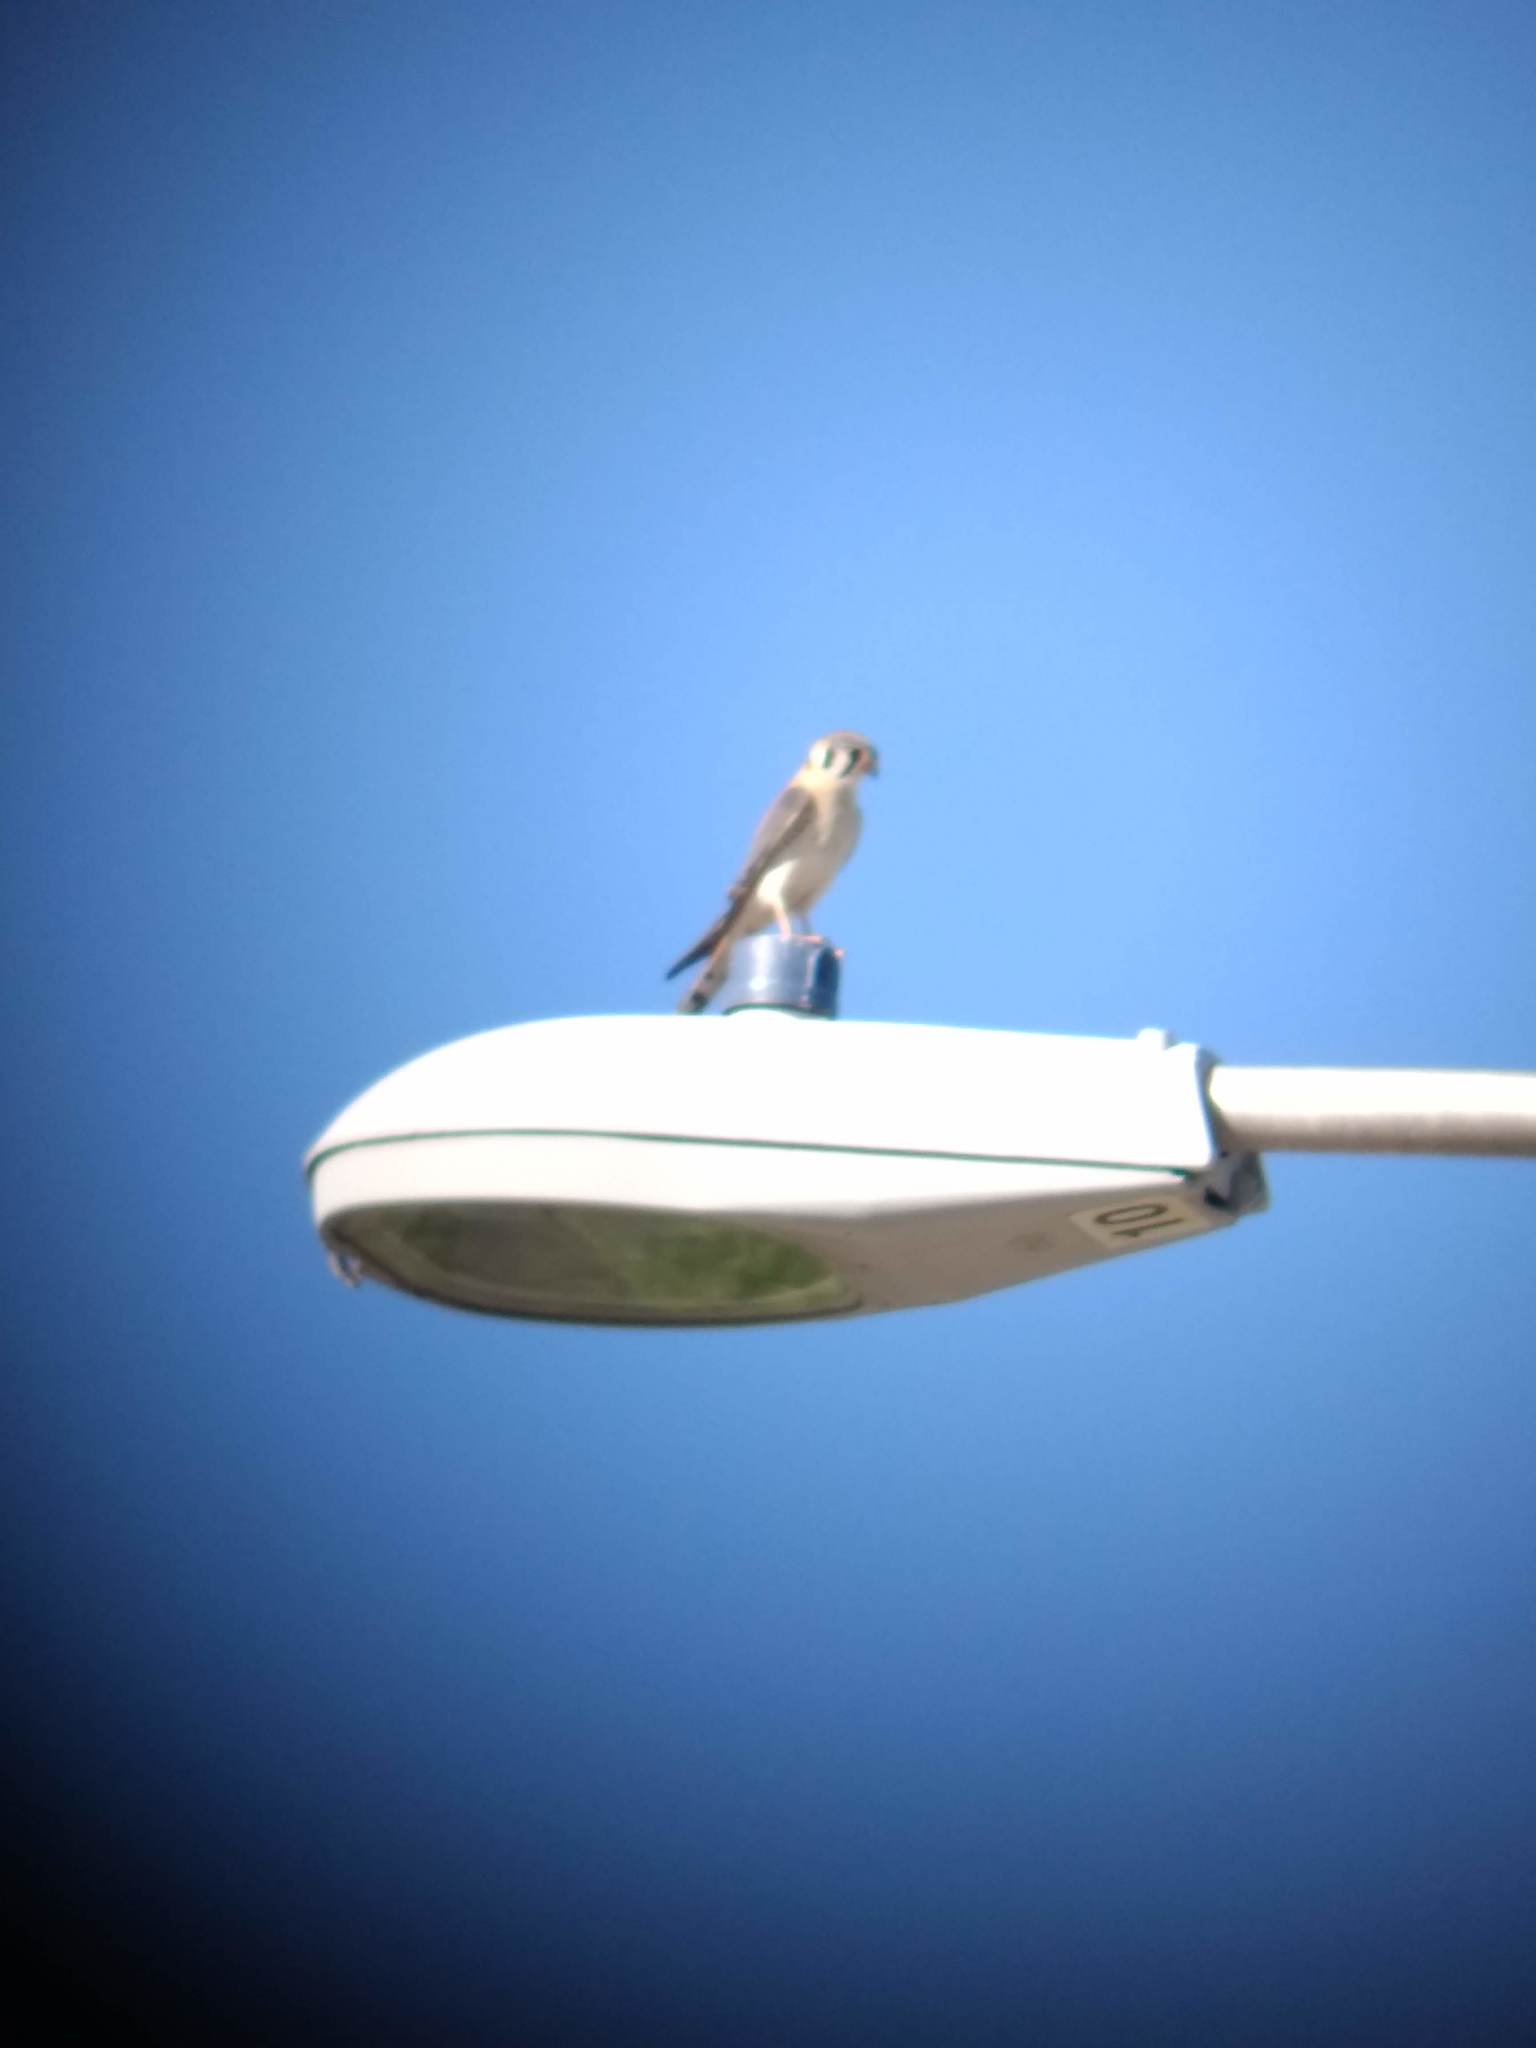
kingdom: Animalia
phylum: Chordata
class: Aves
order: Falconiformes
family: Falconidae
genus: Falco
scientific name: Falco sparverius
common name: American kestrel
